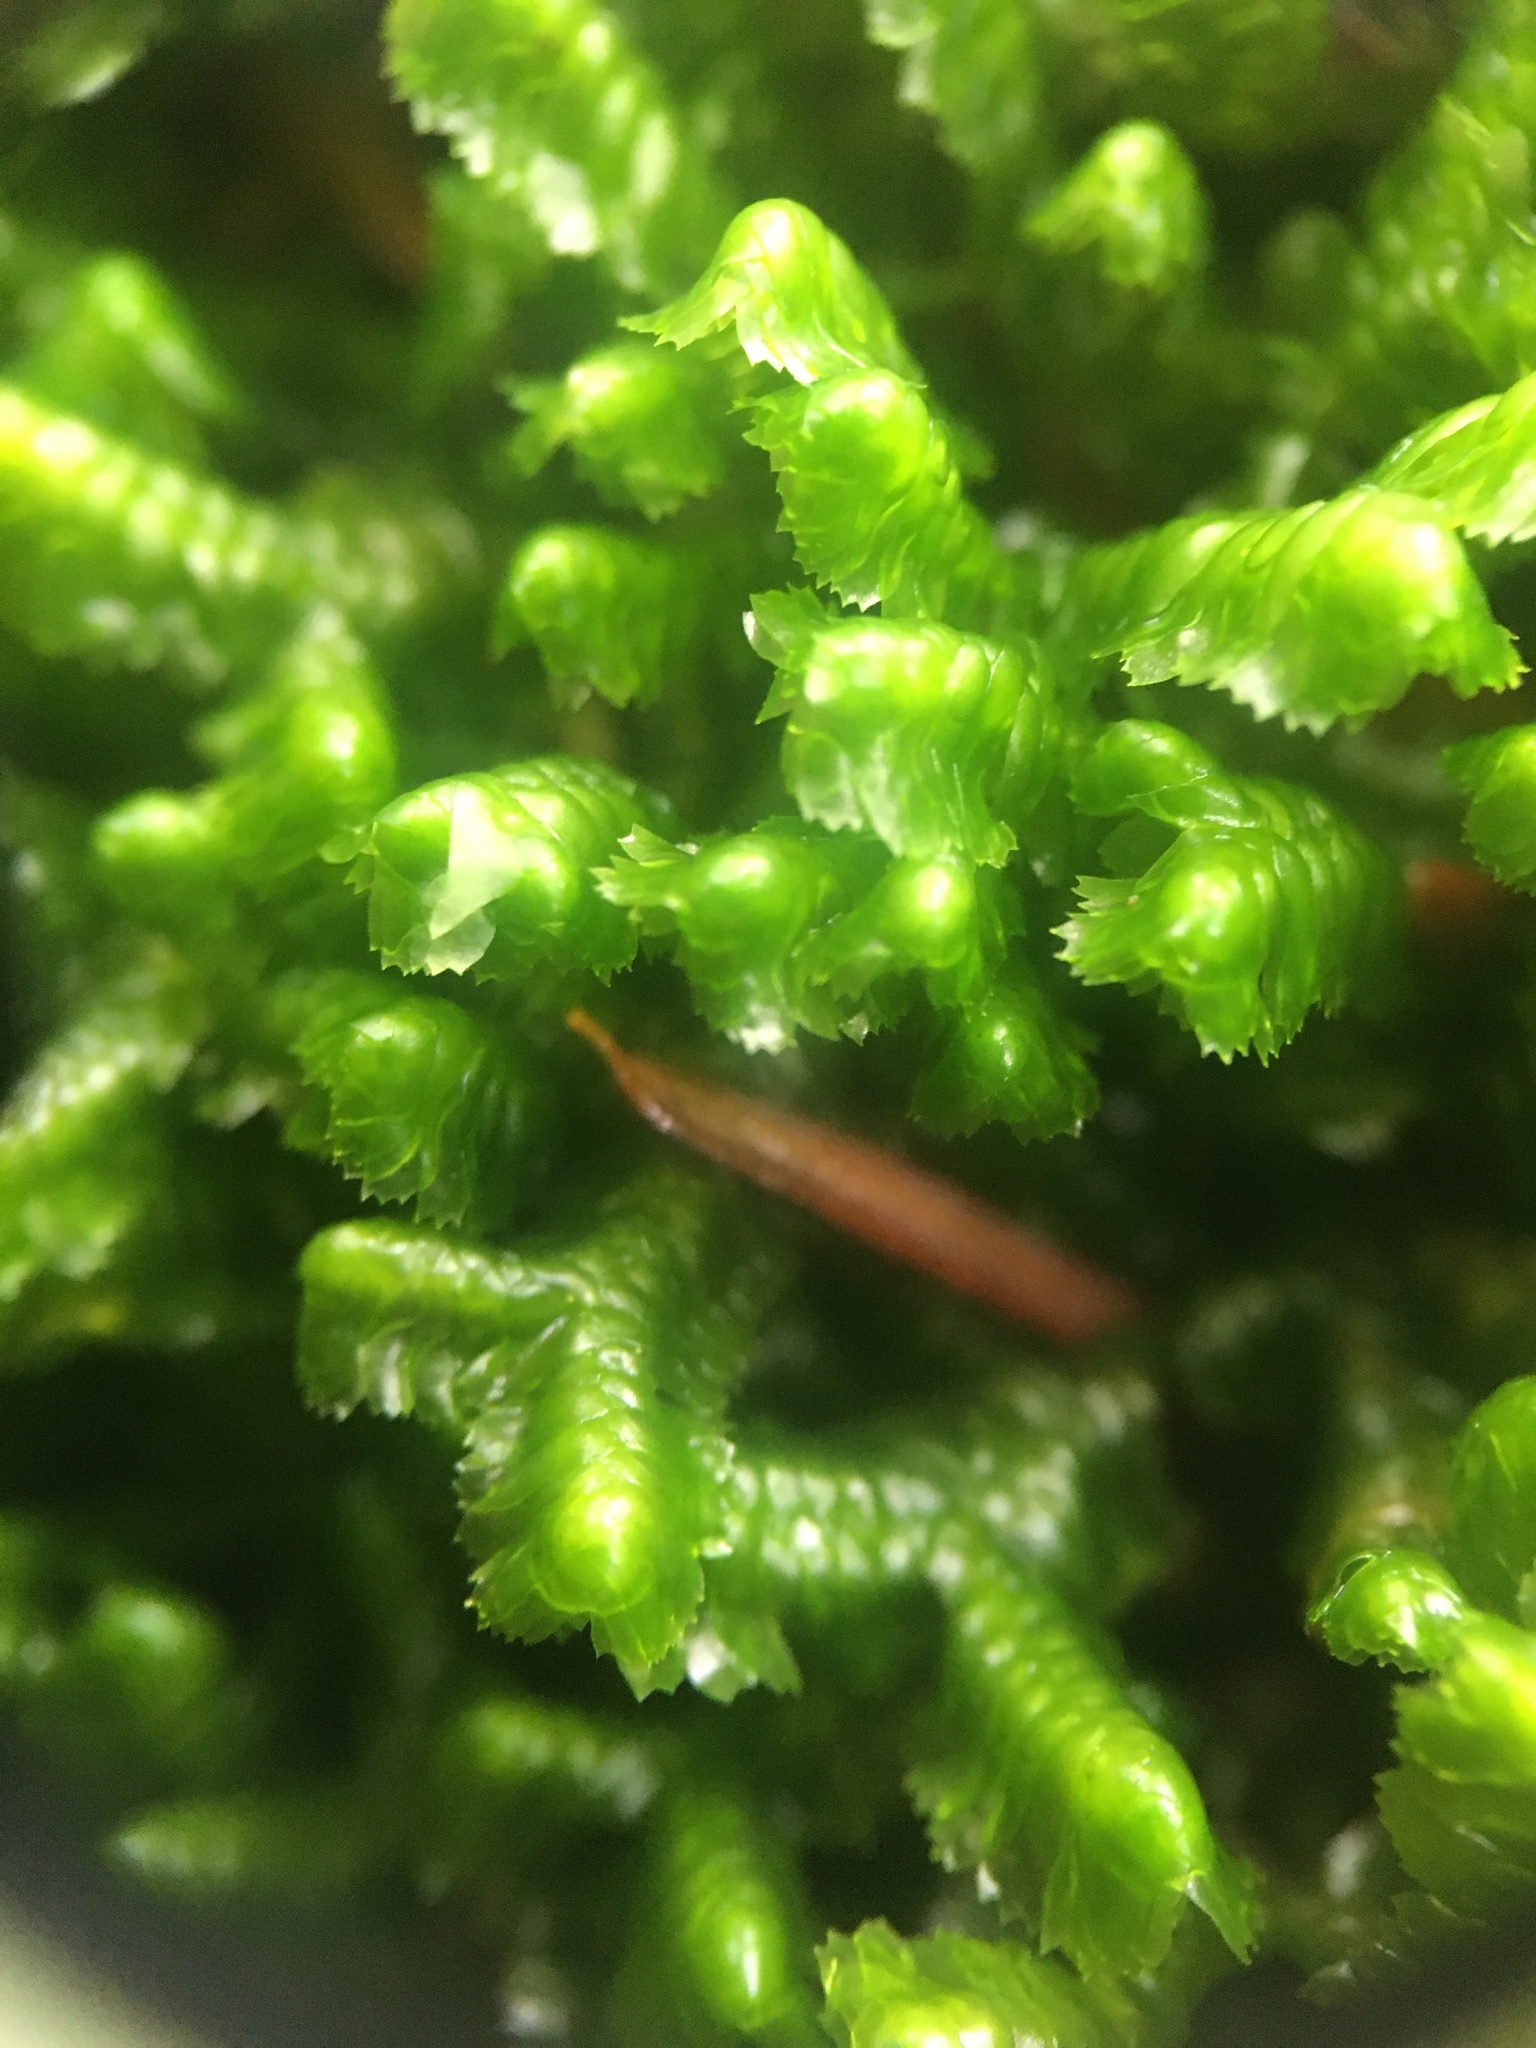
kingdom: Plantae
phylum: Marchantiophyta
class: Jungermanniopsida
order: Jungermanniales
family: Lepidoziaceae
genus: Bazzania
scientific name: Bazzania trilobata
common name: Three-lobed whipwort
